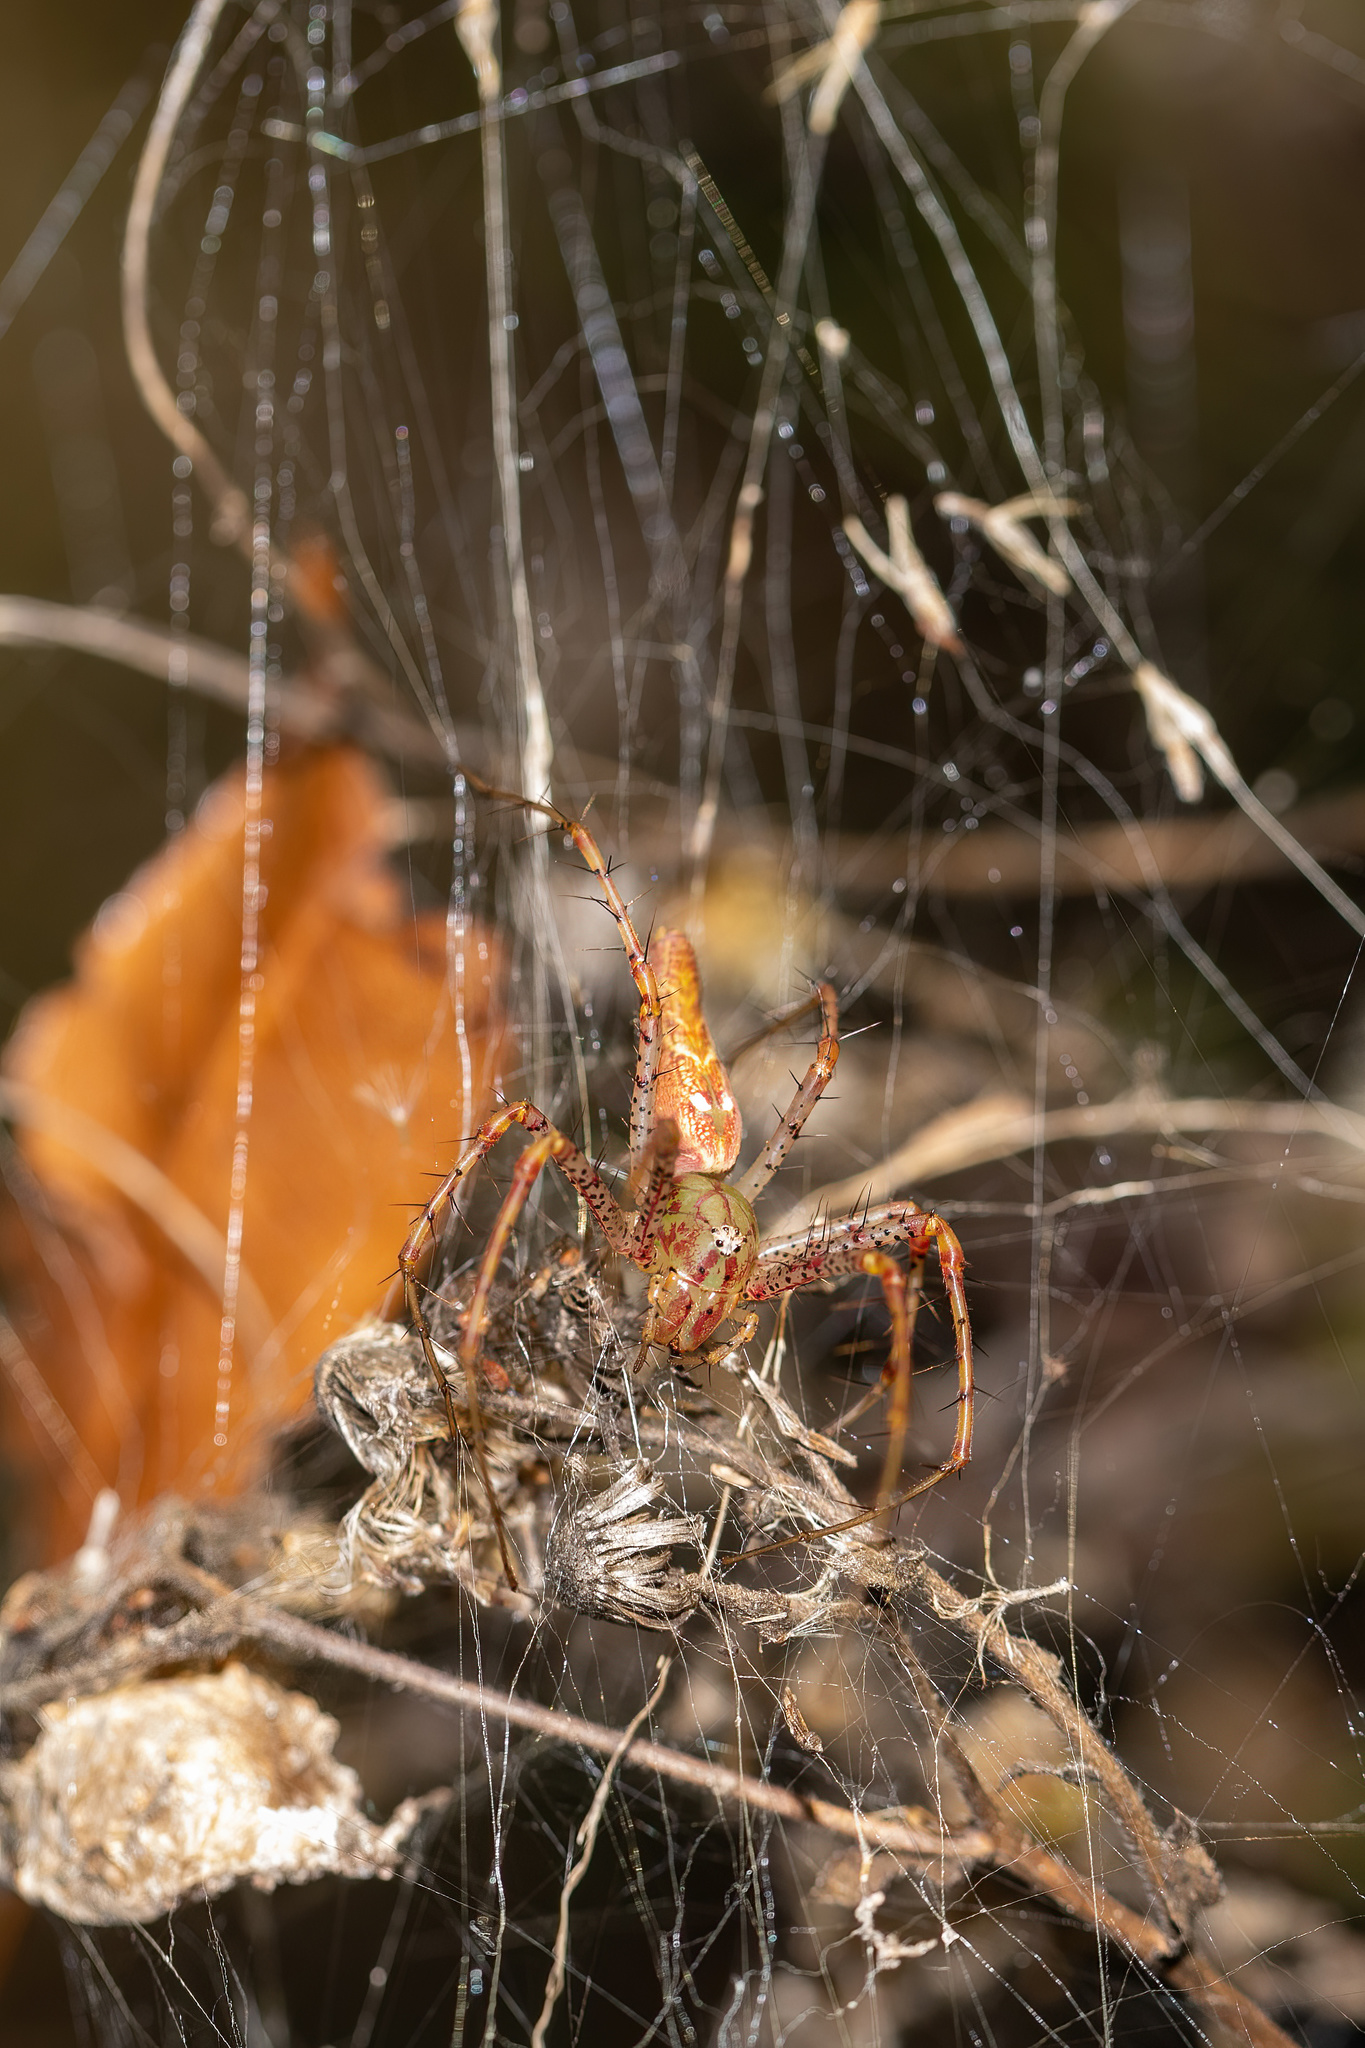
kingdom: Animalia
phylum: Arthropoda
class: Arachnida
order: Araneae
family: Oxyopidae
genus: Peucetia
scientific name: Peucetia viridans
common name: Lynx spiders
